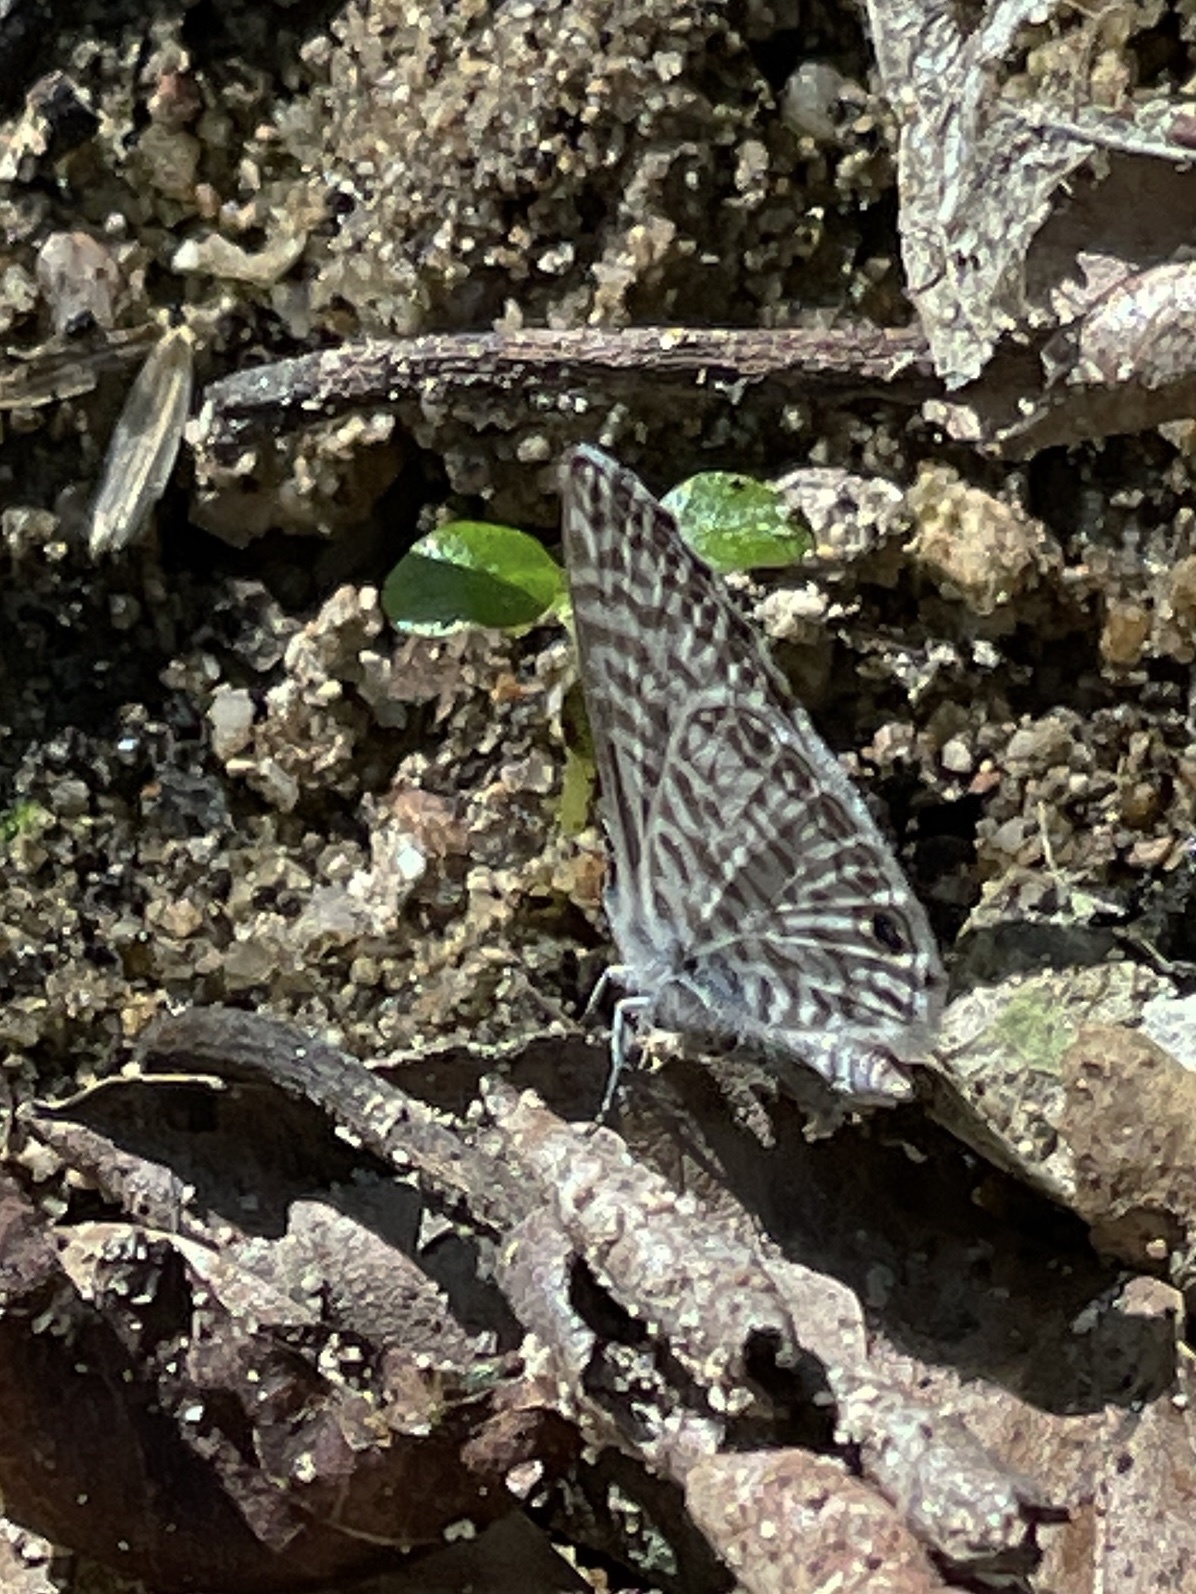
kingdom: Animalia
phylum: Arthropoda
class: Insecta
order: Lepidoptera
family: Lycaenidae
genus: Leptotes
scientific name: Leptotes cassius
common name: Cassius blue
